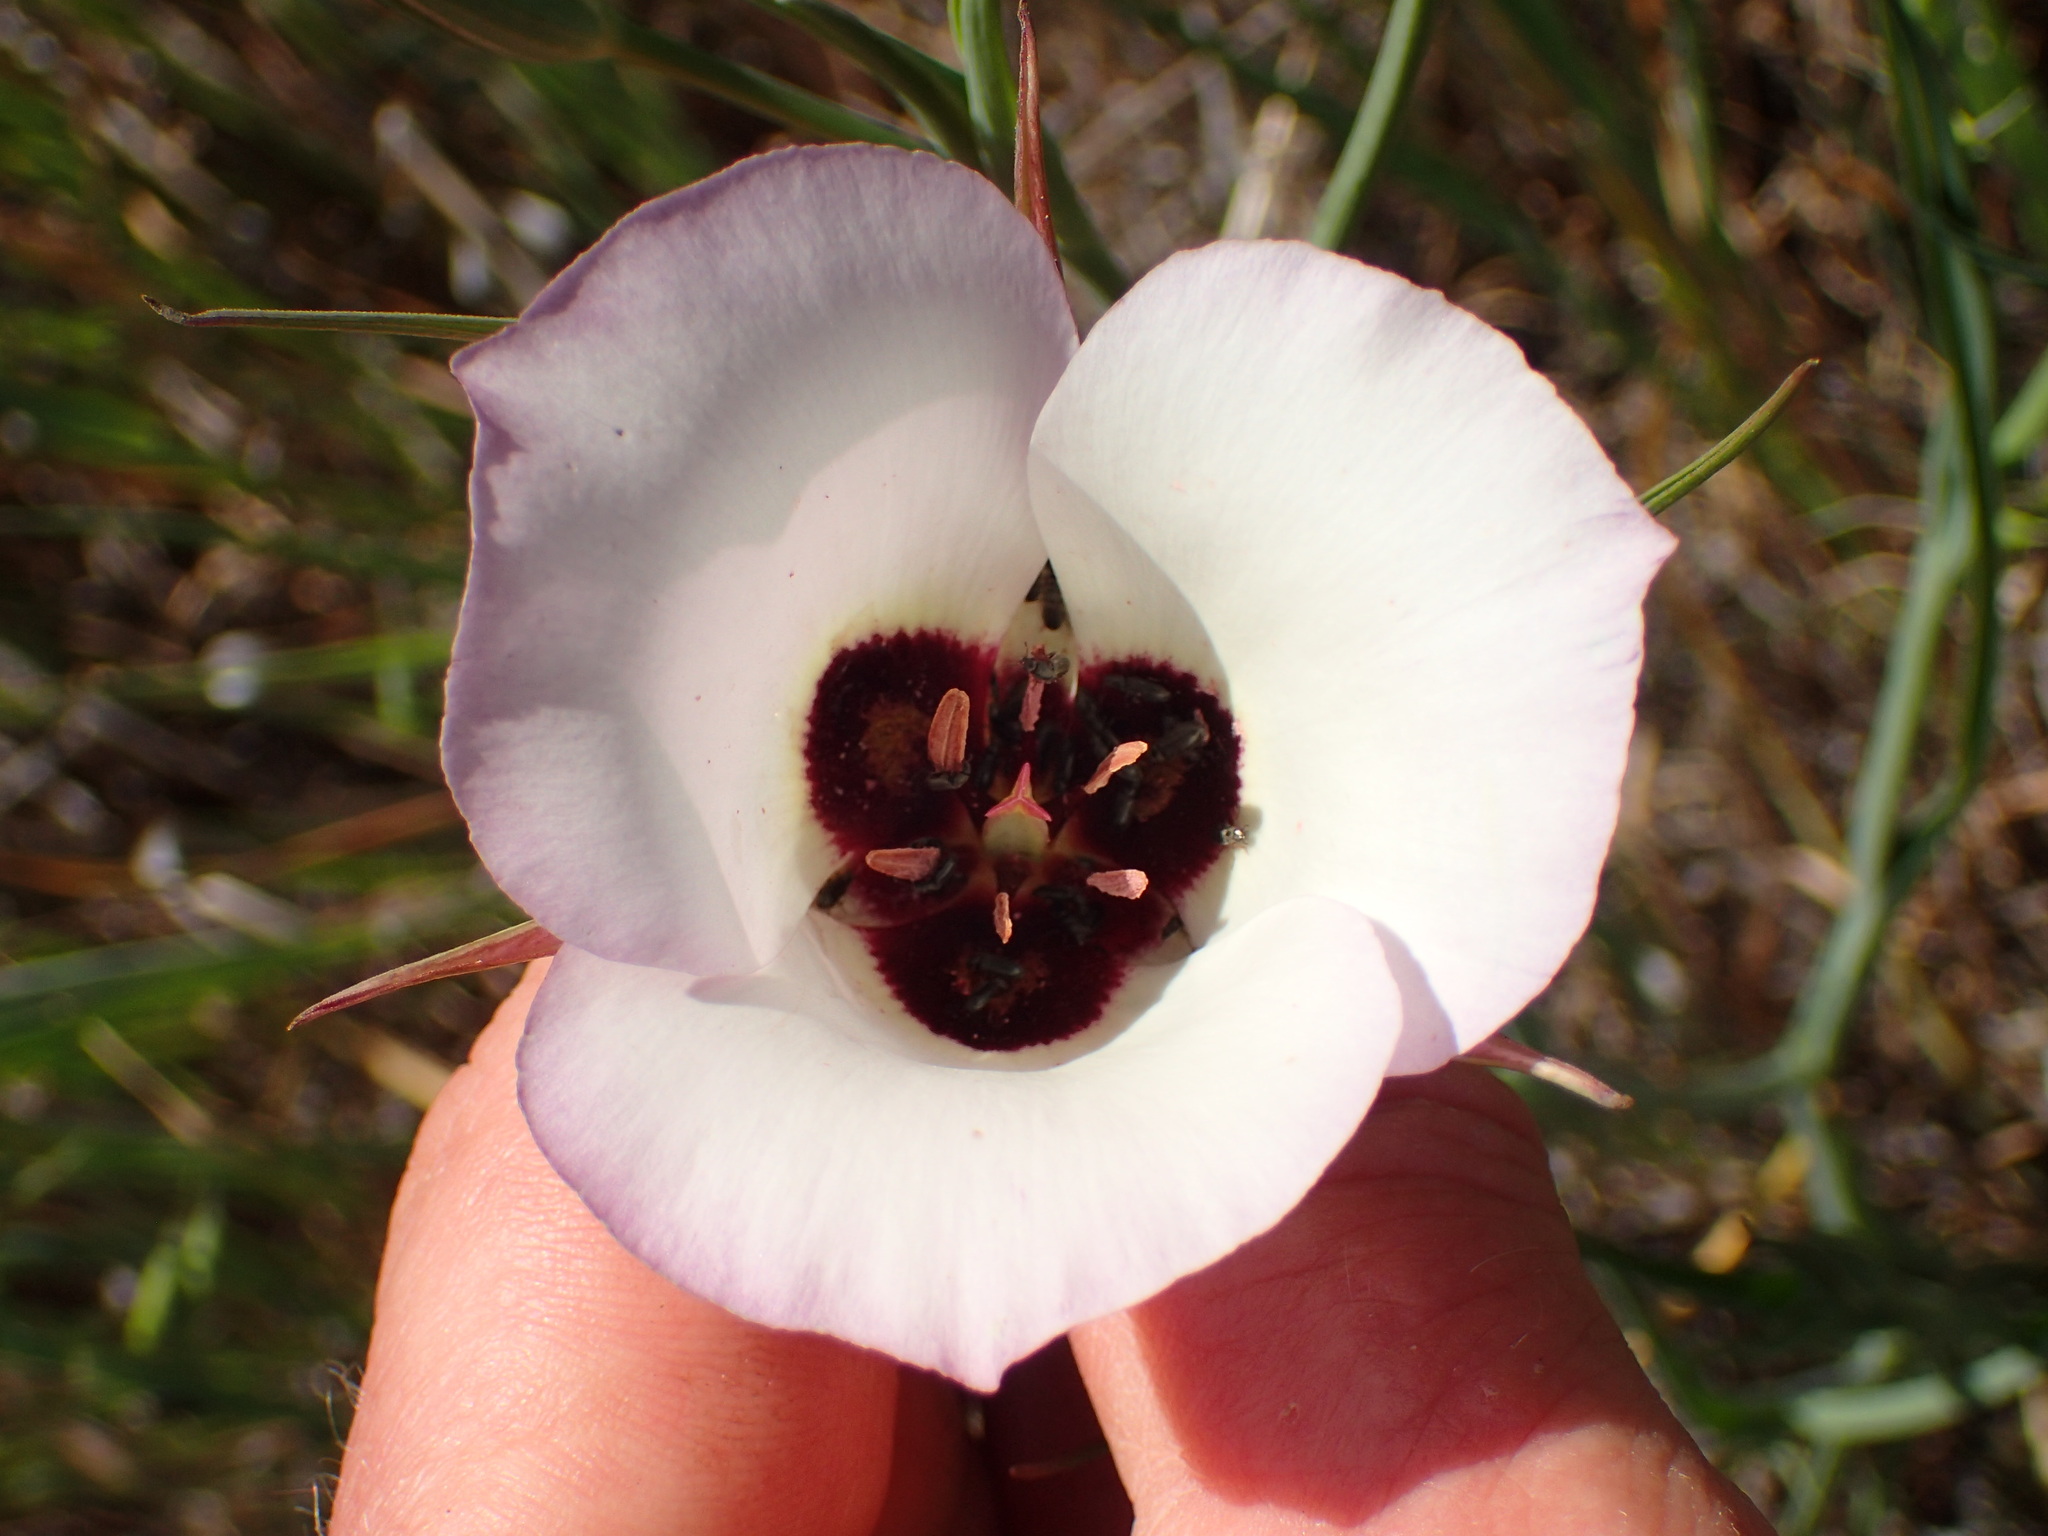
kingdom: Plantae
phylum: Tracheophyta
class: Liliopsida
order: Liliales
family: Liliaceae
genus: Calochortus
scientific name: Calochortus catalinae
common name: Catalina mariposa-lily
